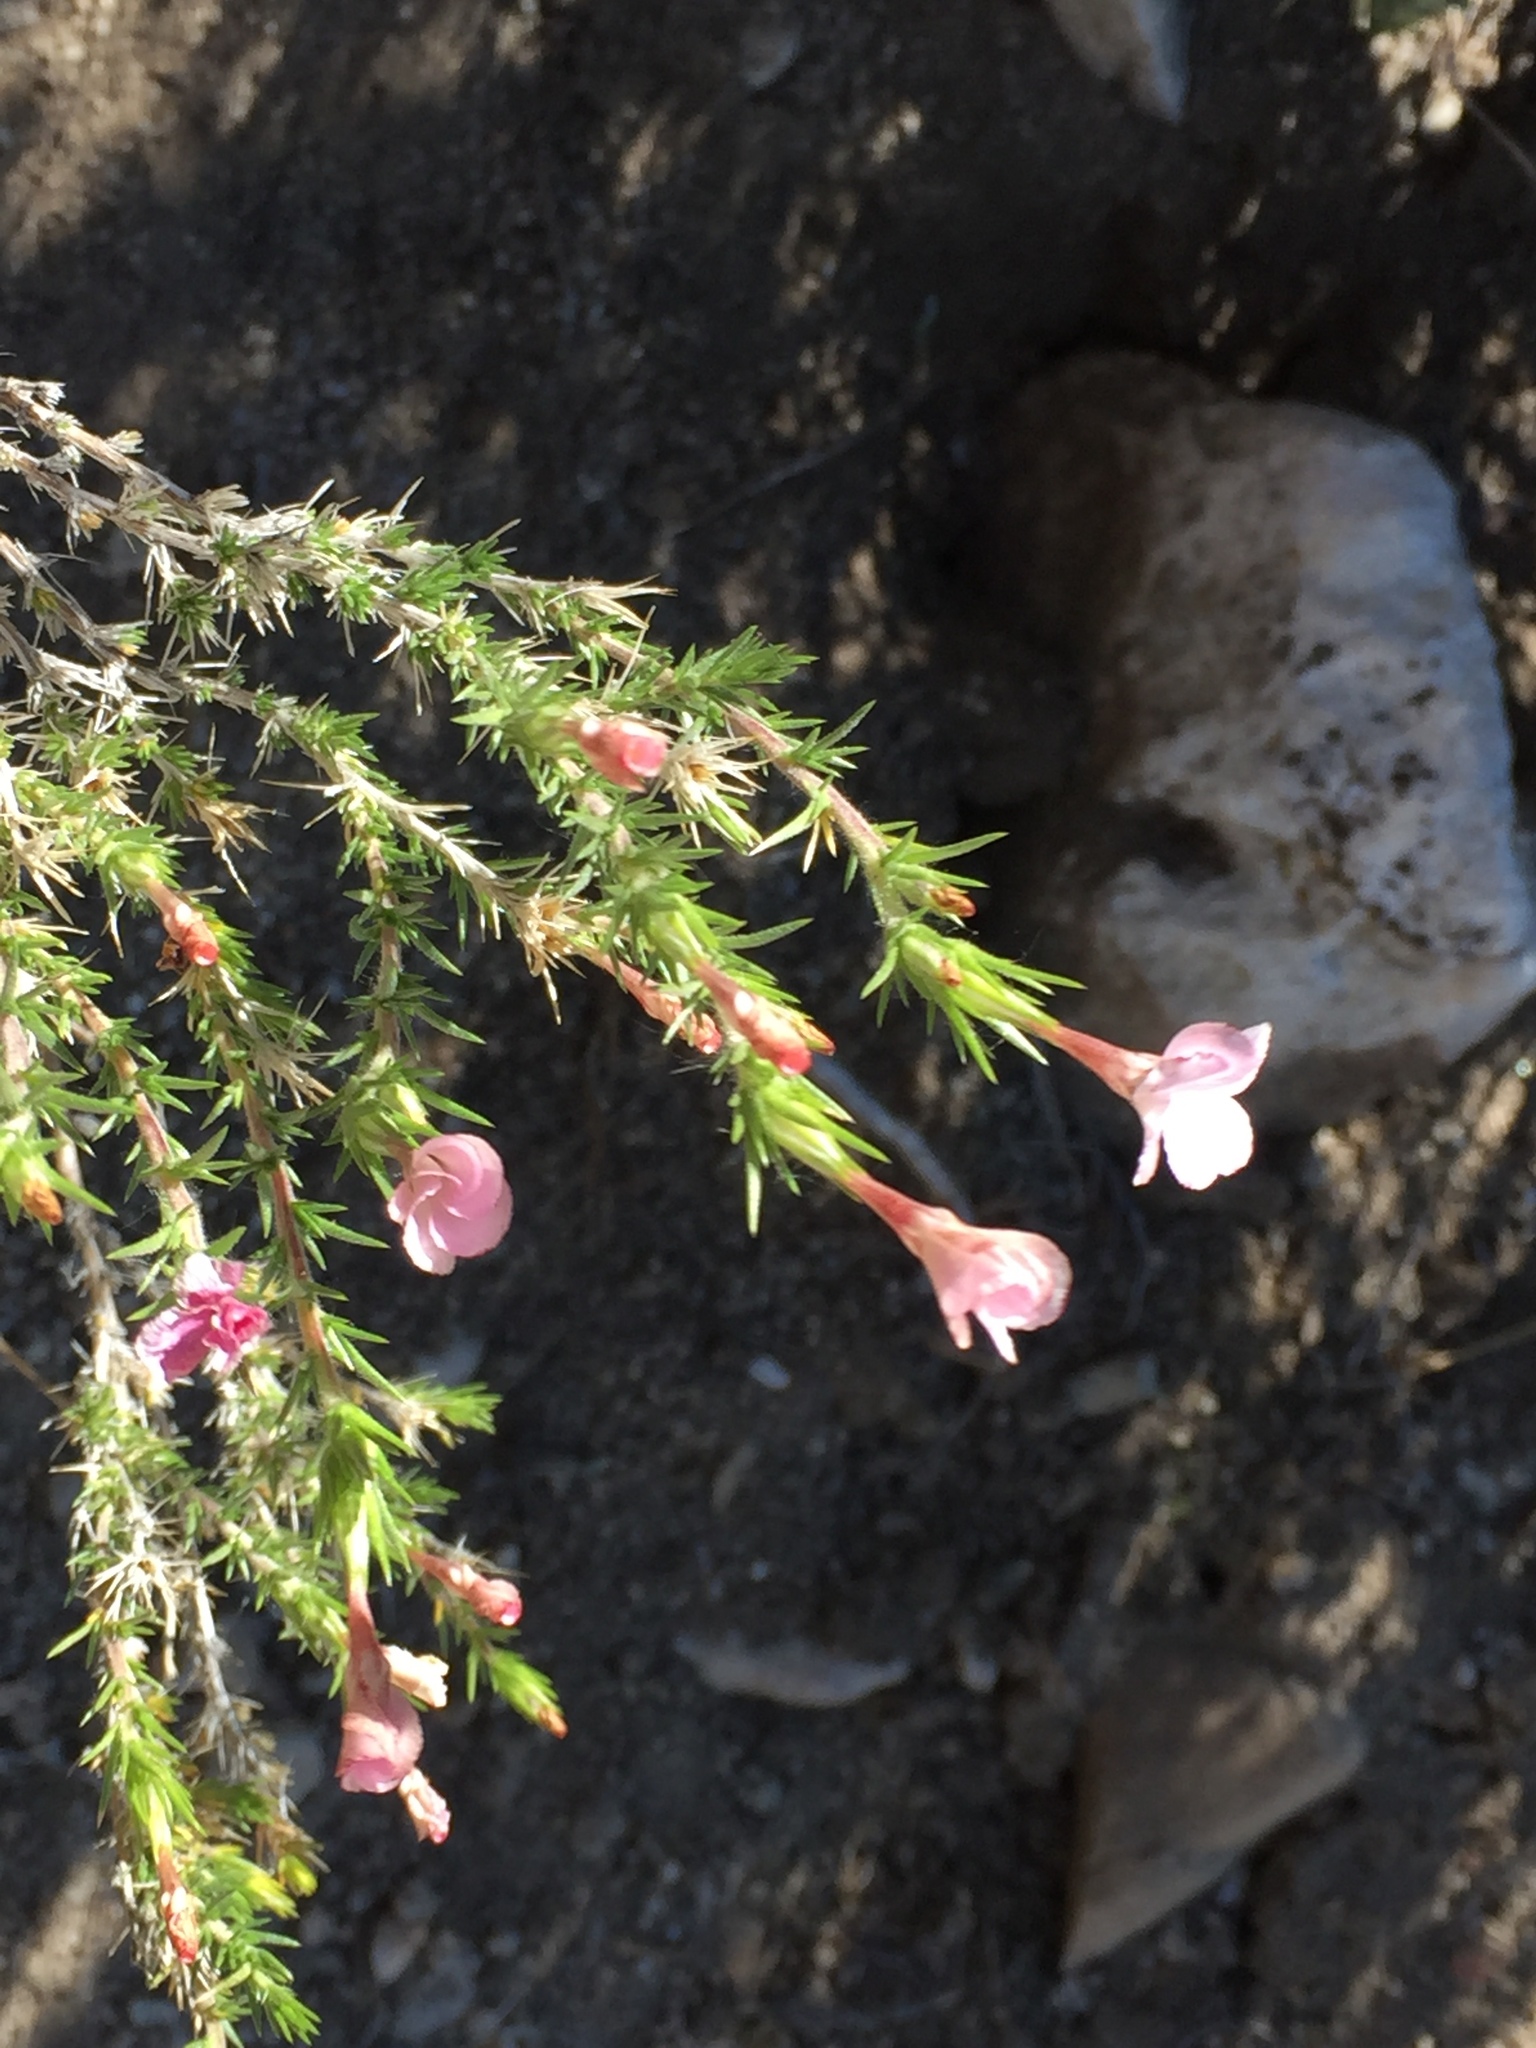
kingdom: Plantae
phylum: Tracheophyta
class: Magnoliopsida
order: Ericales
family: Polemoniaceae
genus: Linanthus
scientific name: Linanthus pungens
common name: Granite prickly phlox
